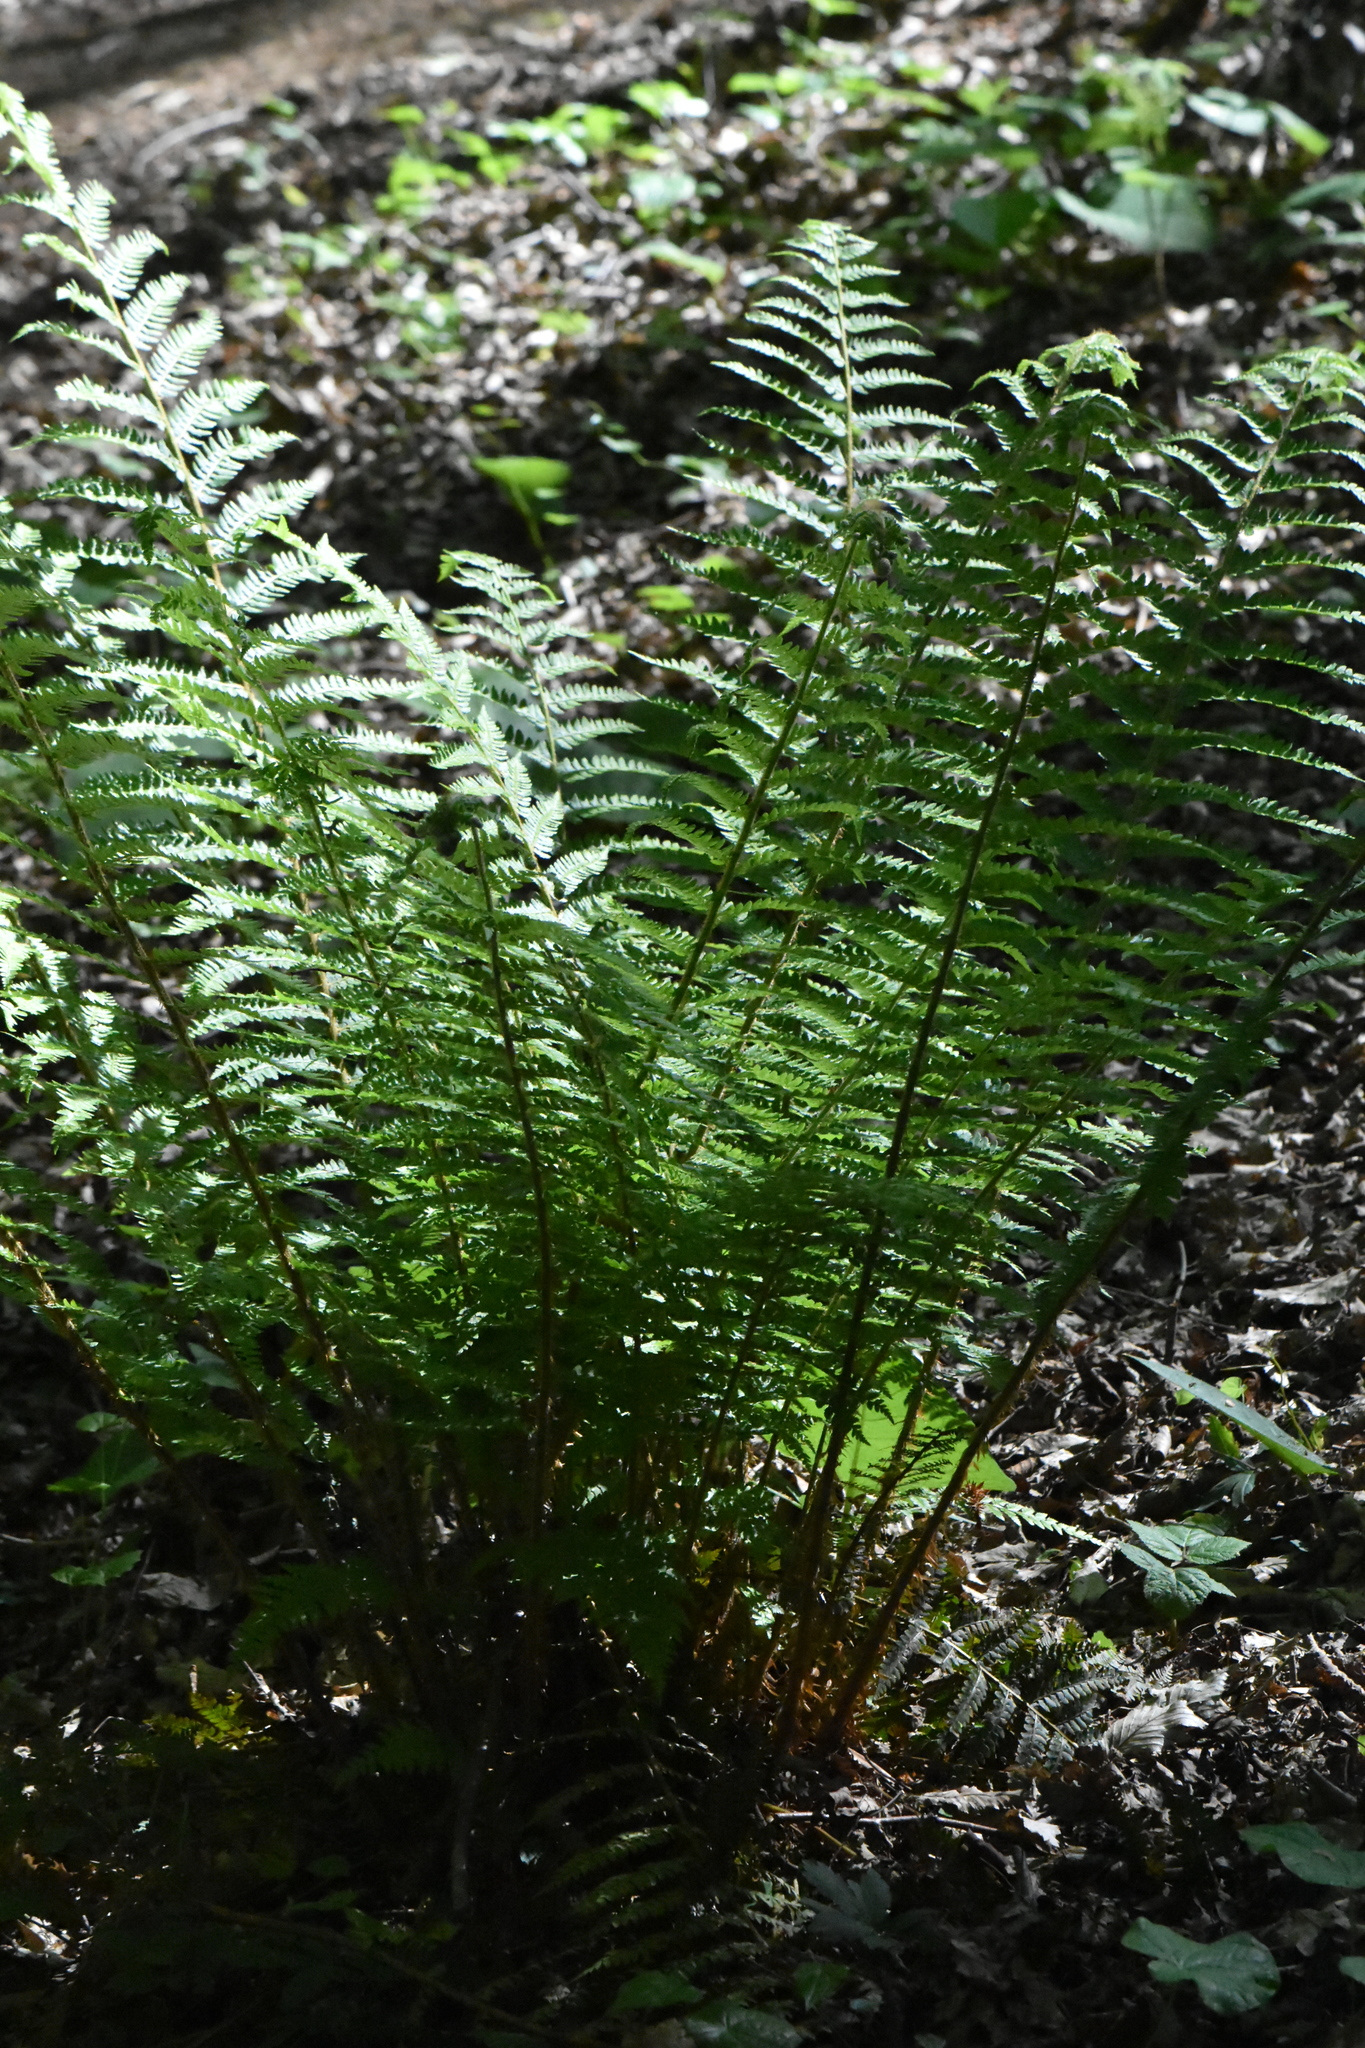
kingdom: Plantae
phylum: Tracheophyta
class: Polypodiopsida
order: Polypodiales
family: Dryopteridaceae
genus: Polystichum
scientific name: Polystichum setiferum
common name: Soft shield-fern
